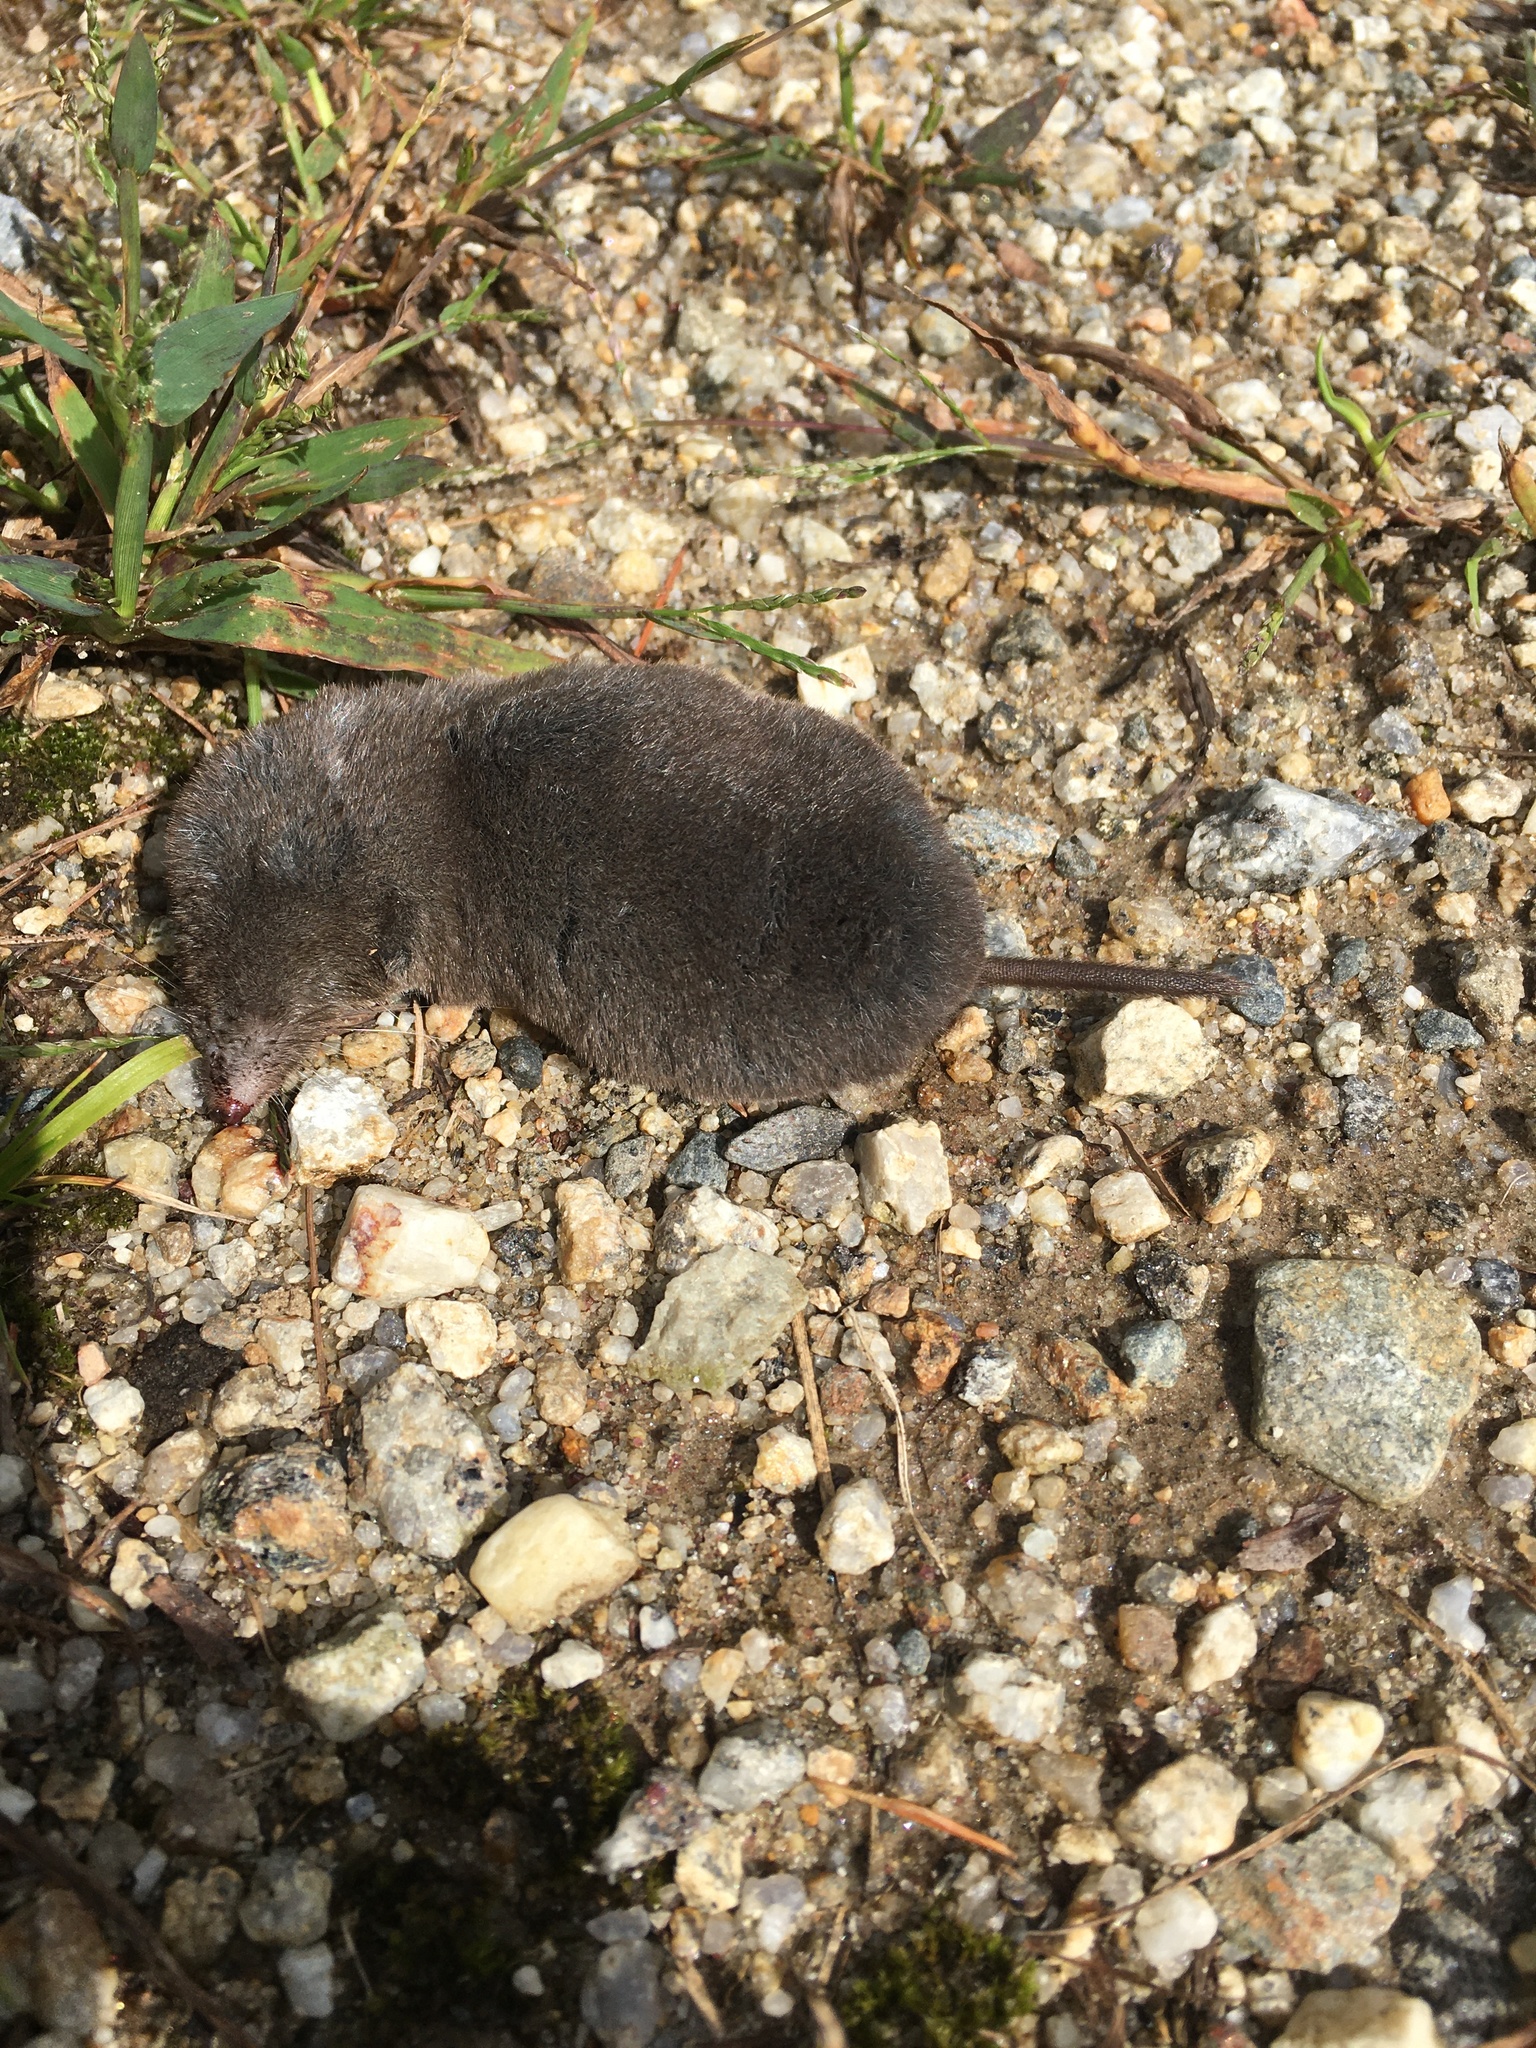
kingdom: Animalia
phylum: Chordata
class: Mammalia
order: Soricomorpha
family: Soricidae
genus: Blarina
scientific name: Blarina brevicauda
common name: Northern short-tailed shrew
